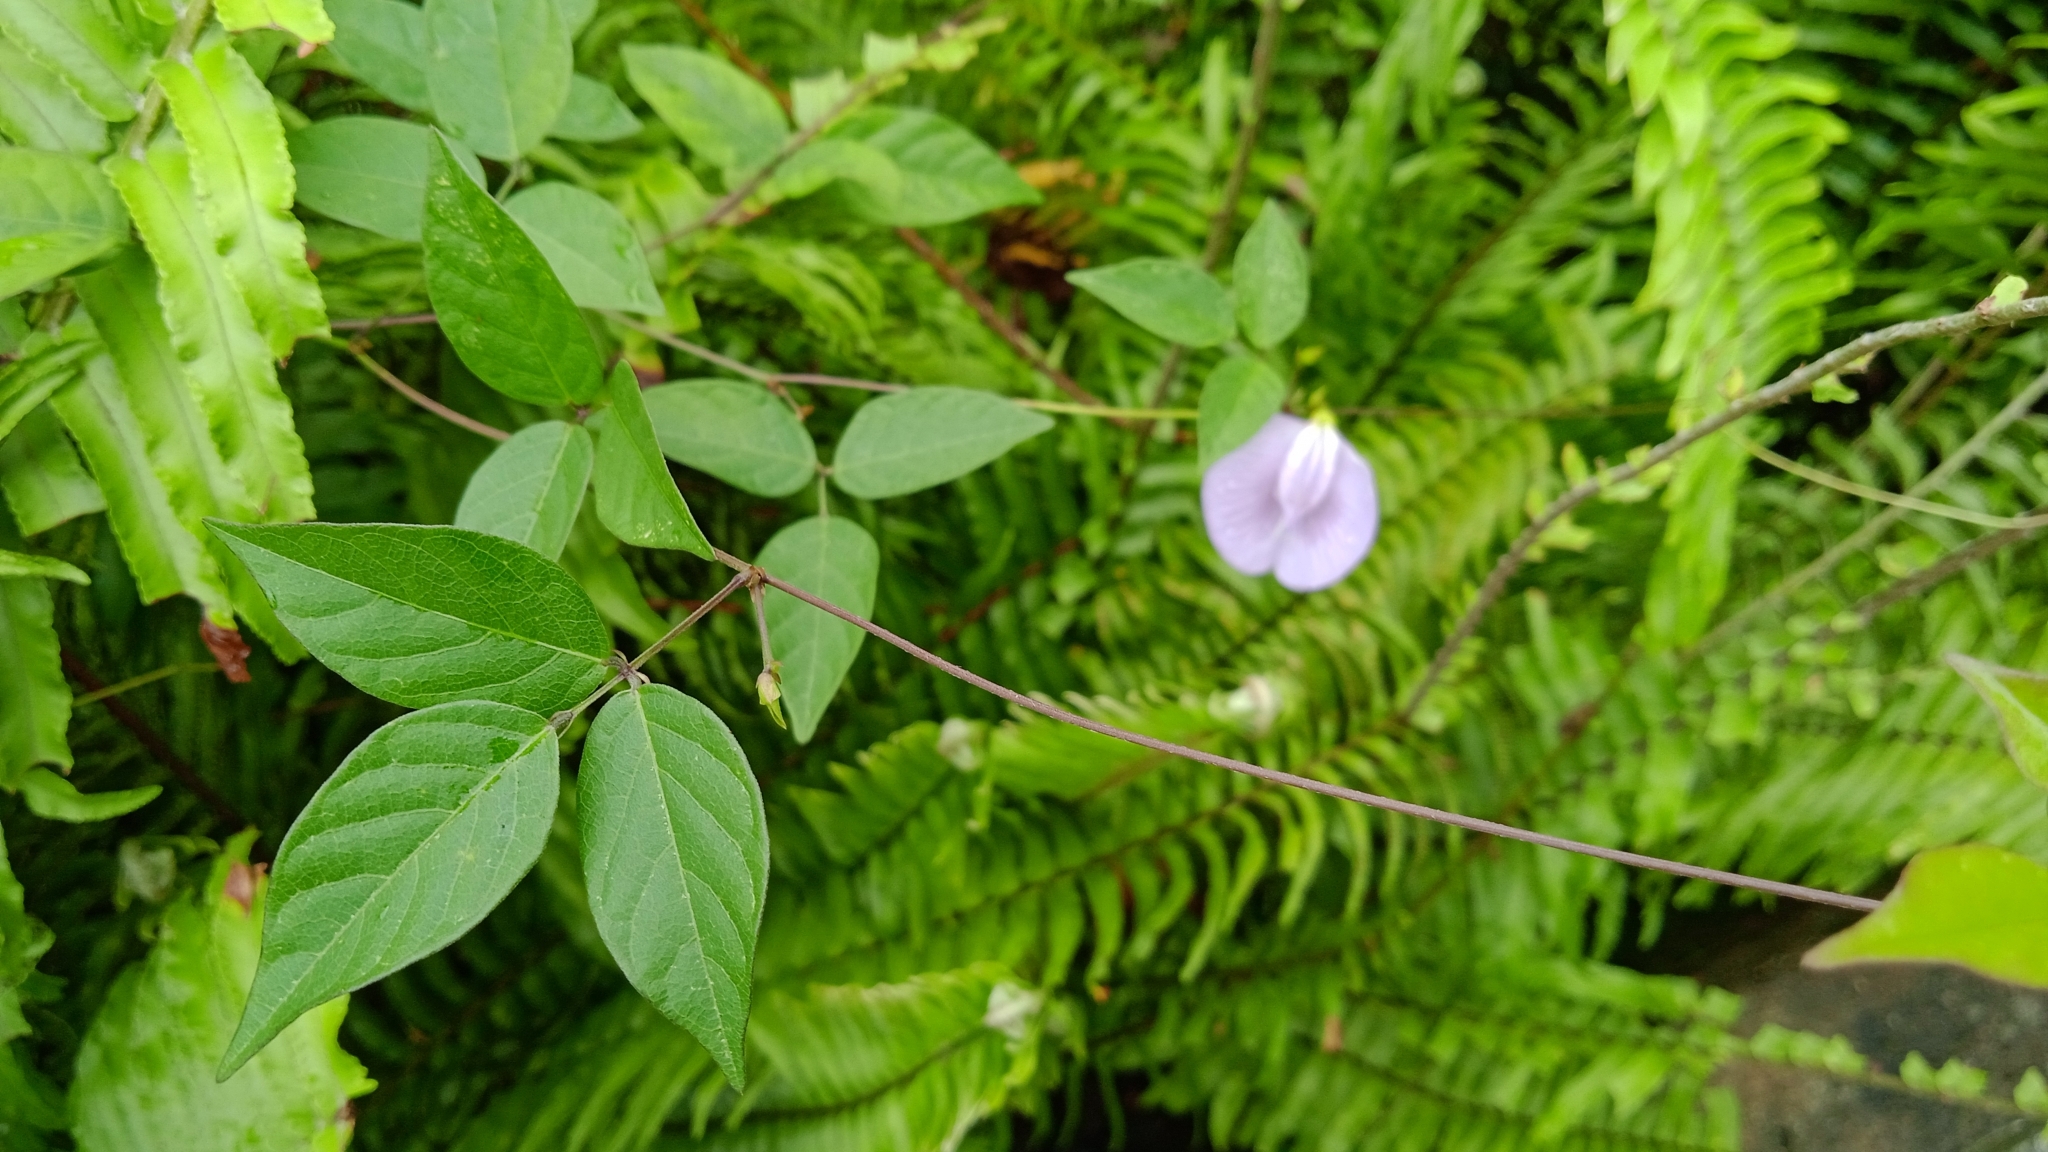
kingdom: Plantae
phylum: Tracheophyta
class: Magnoliopsida
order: Fabales
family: Fabaceae
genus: Centrosema
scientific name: Centrosema virginianum
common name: Butterfly-pea
